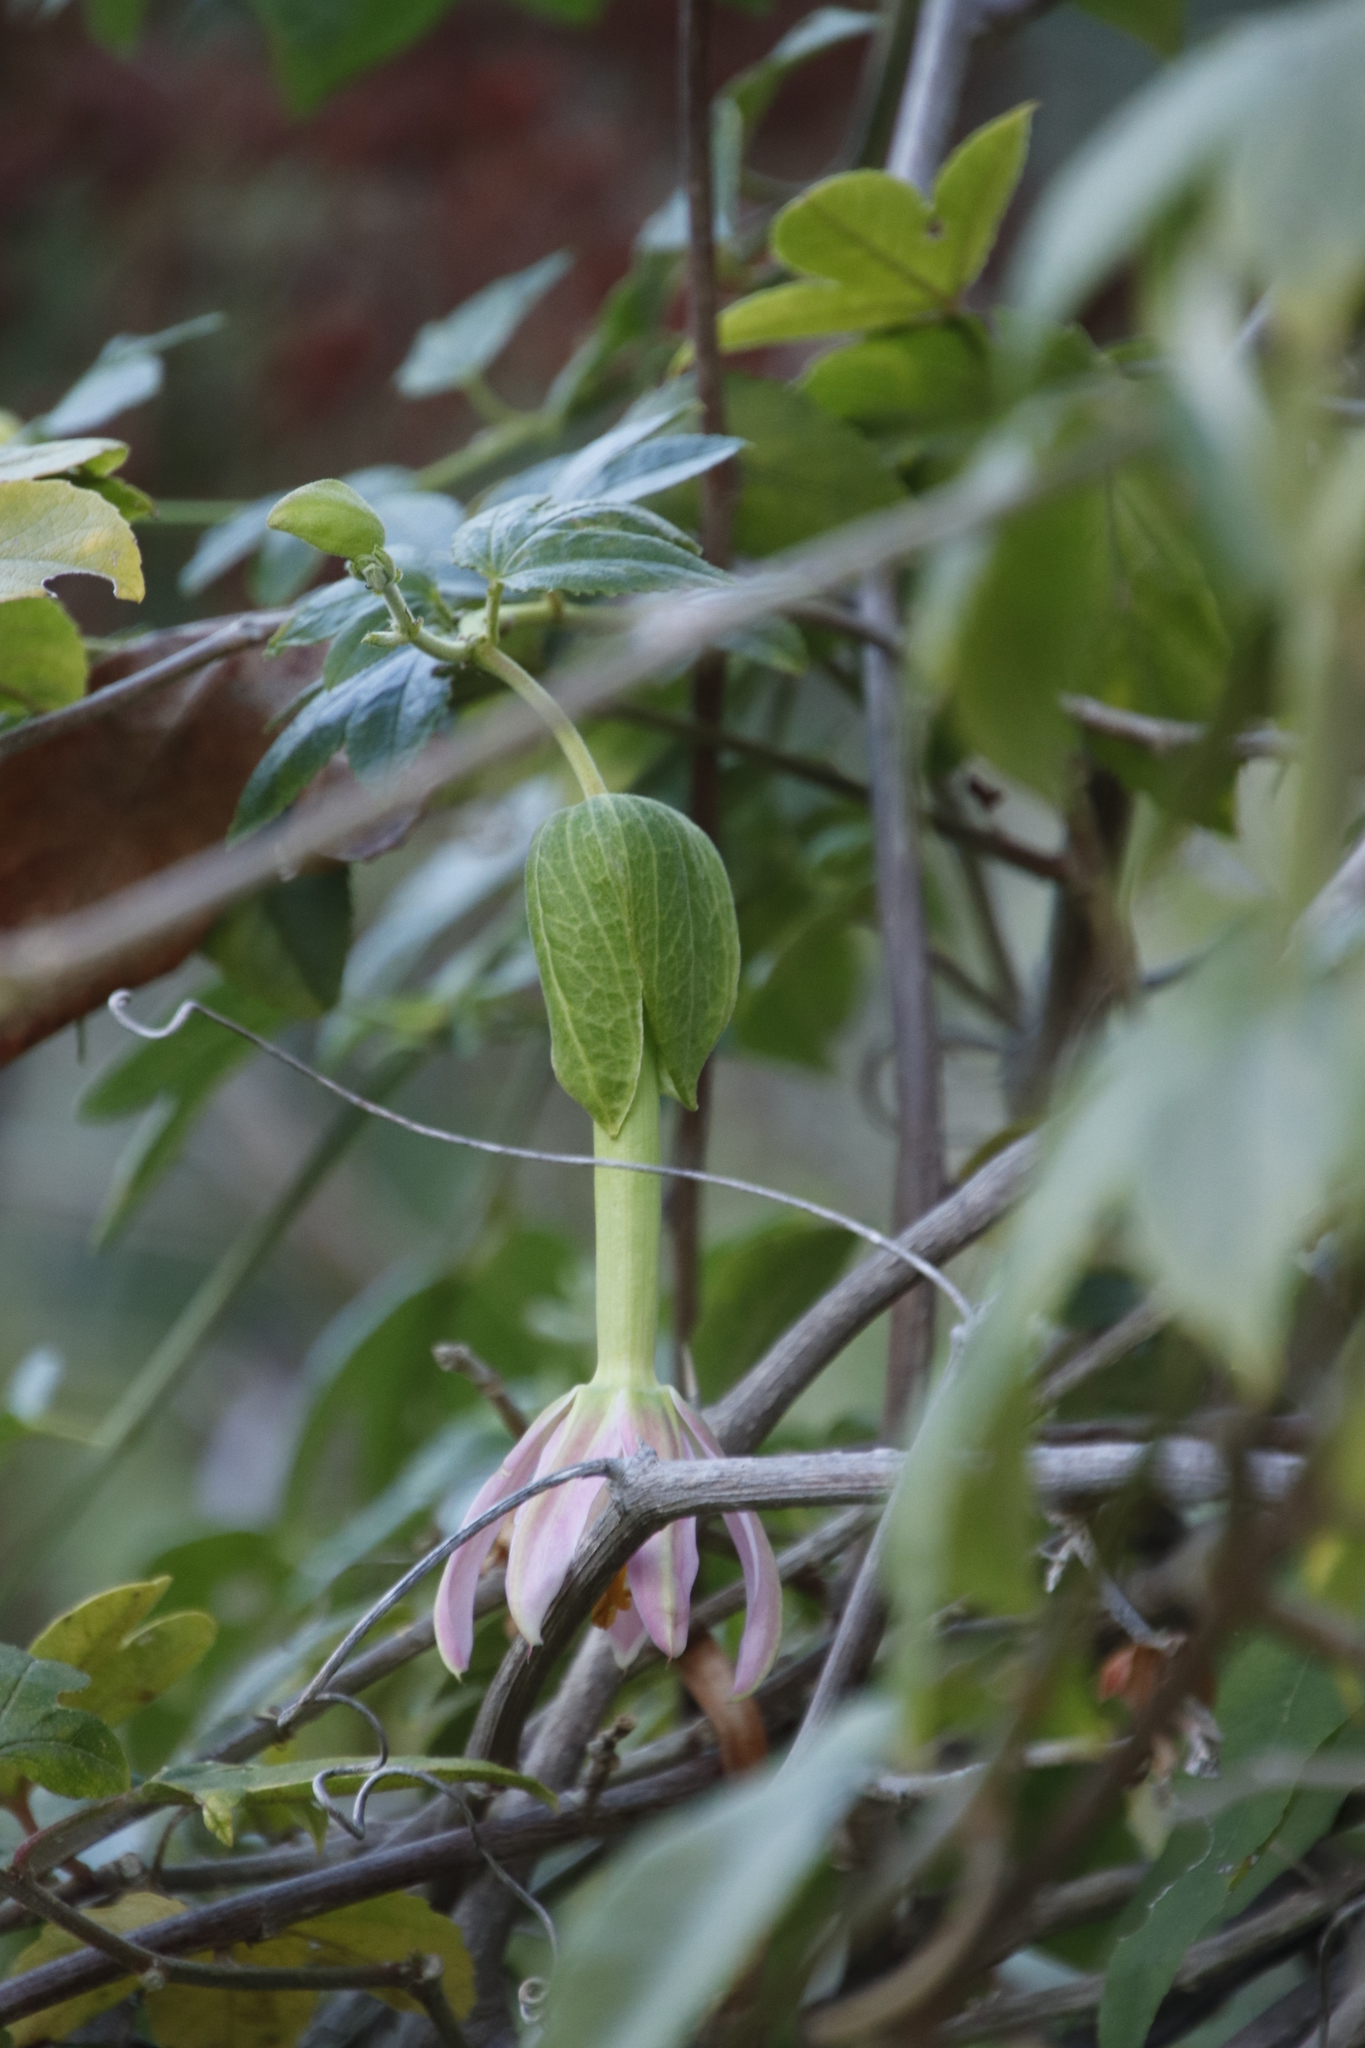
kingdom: Plantae
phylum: Tracheophyta
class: Magnoliopsida
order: Malpighiales
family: Passifloraceae
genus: Passiflora
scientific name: Passiflora tarminiana
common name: Banana poka
